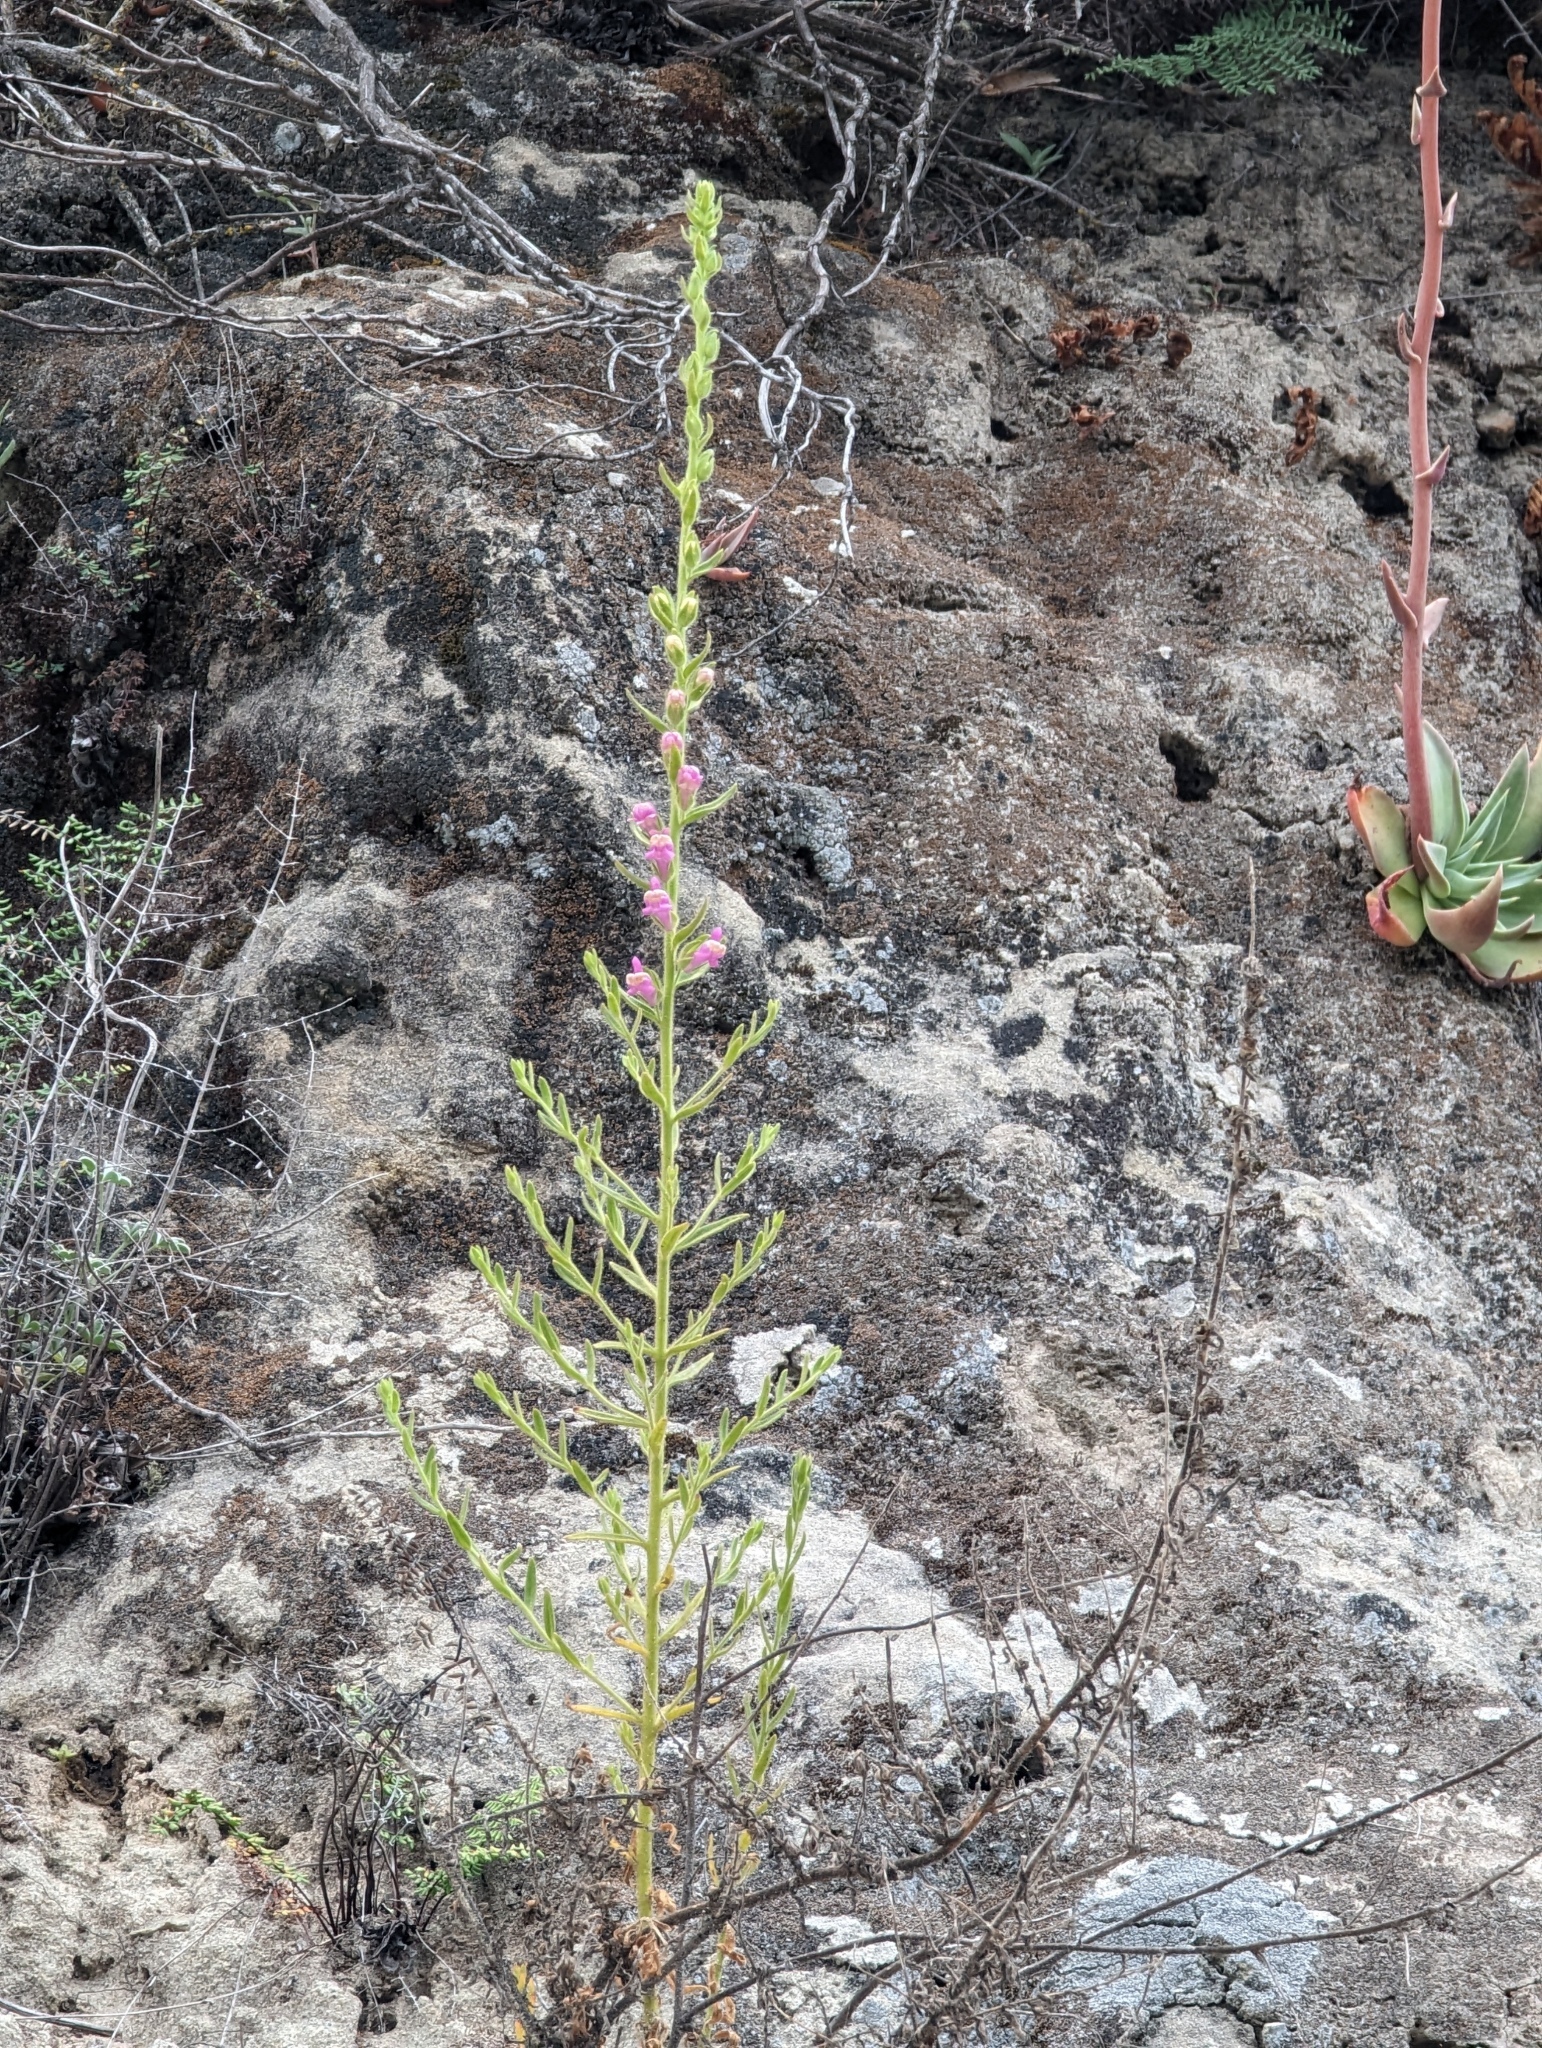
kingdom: Plantae
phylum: Tracheophyta
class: Magnoliopsida
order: Lamiales
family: Plantaginaceae
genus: Sairocarpus
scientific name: Sairocarpus multiflorus
